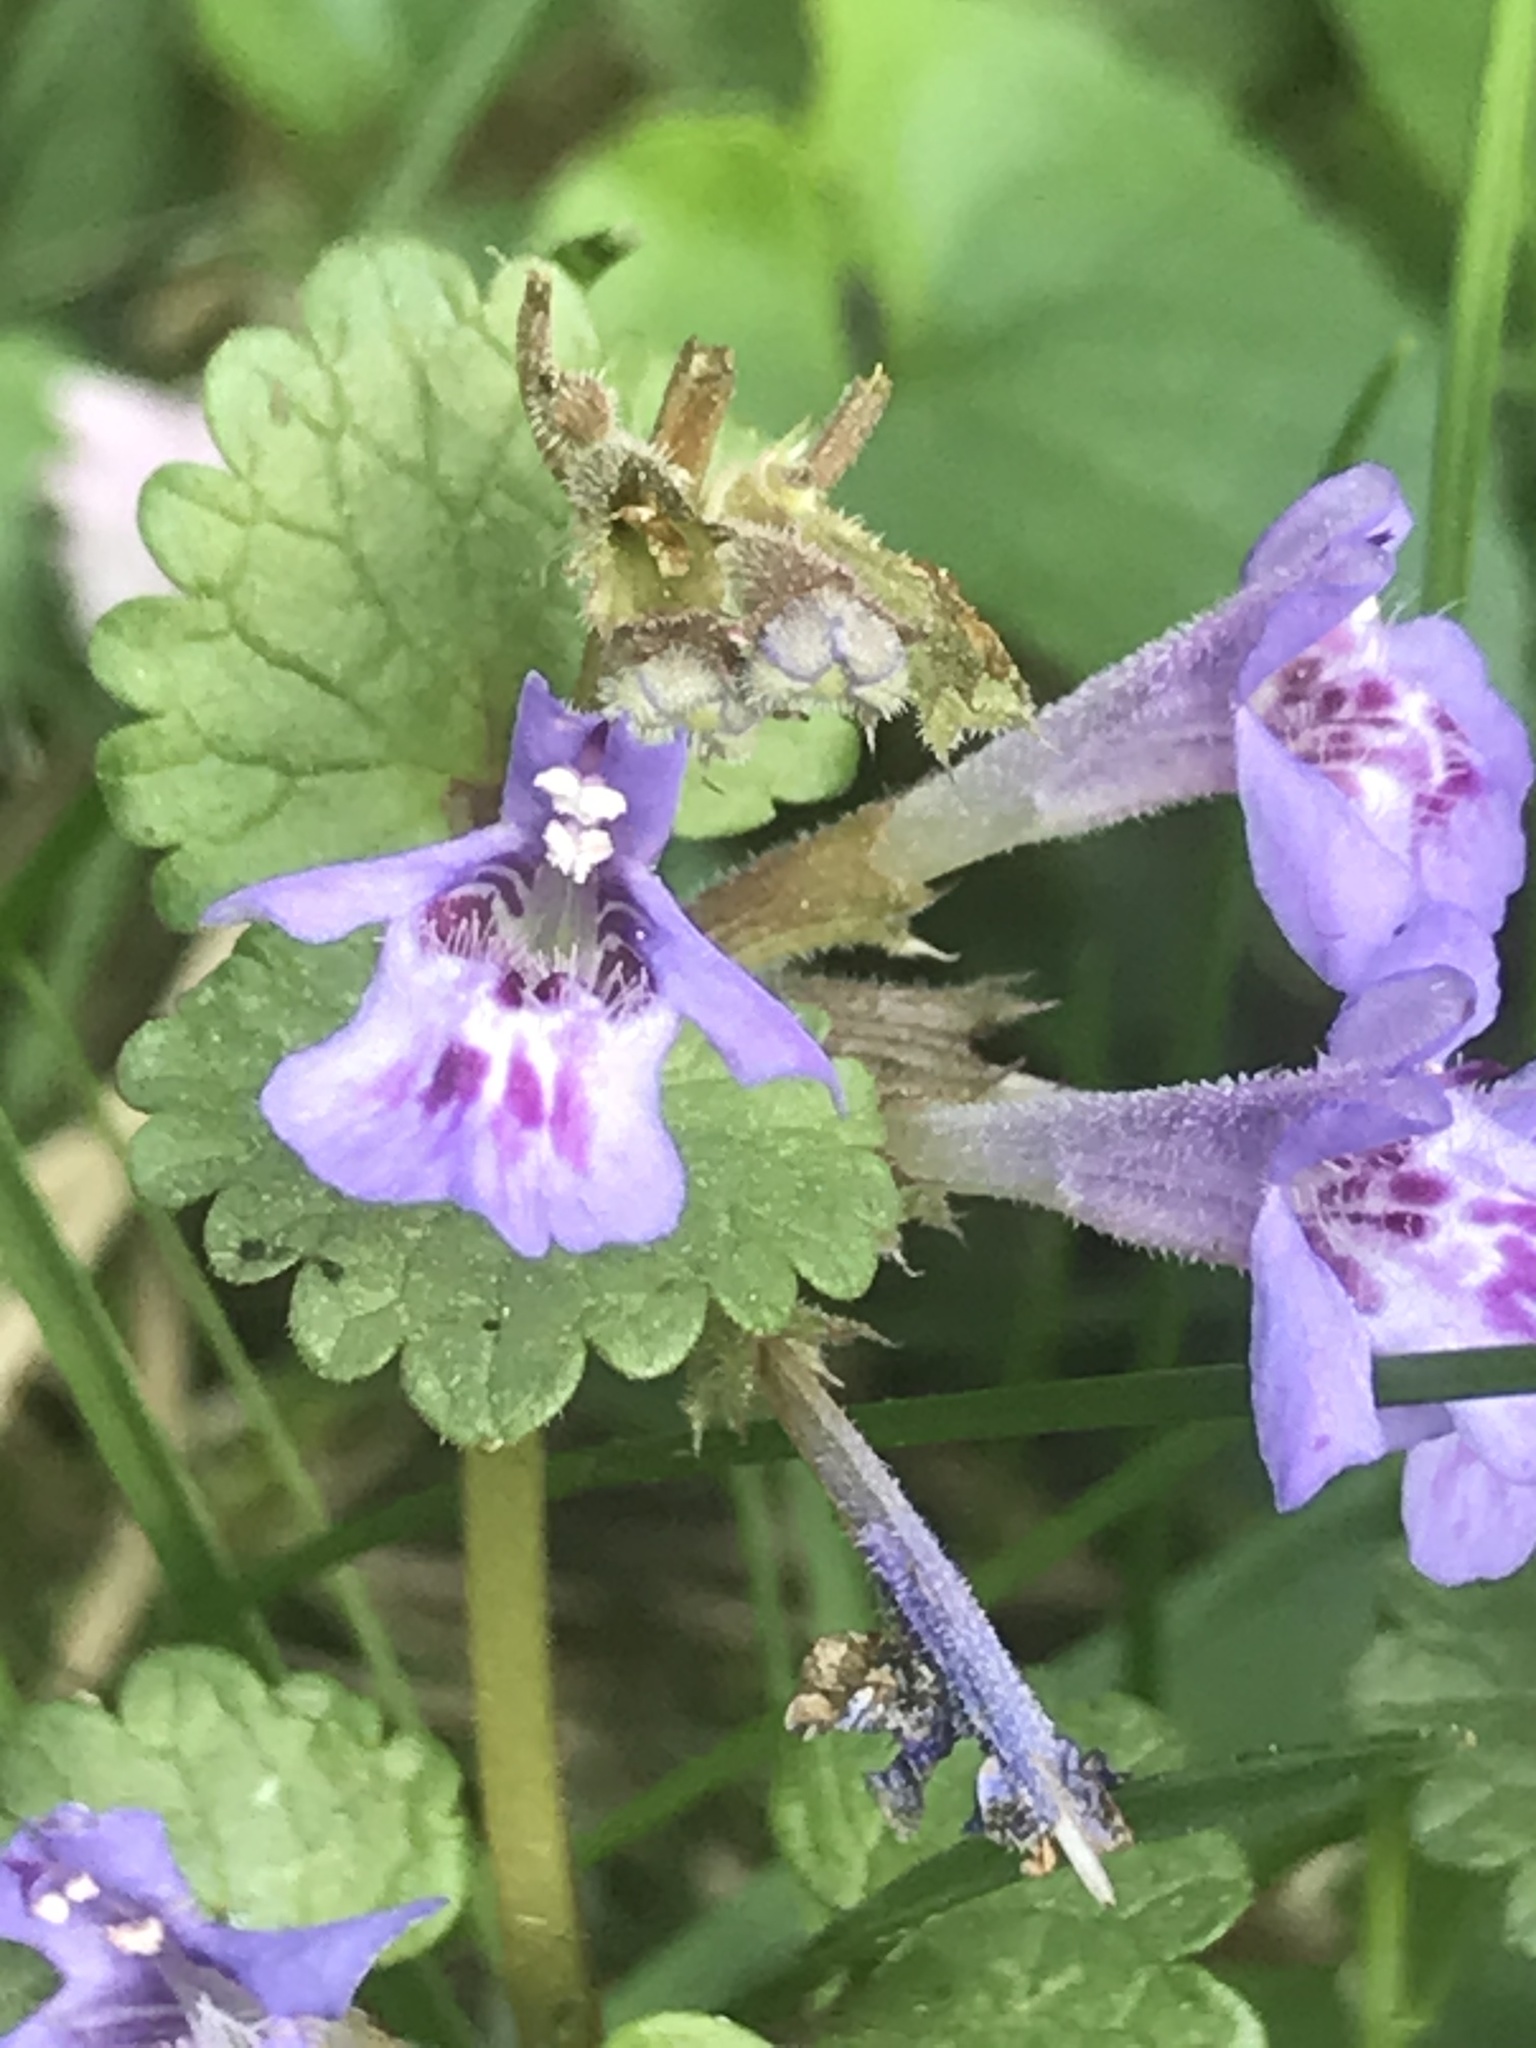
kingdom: Plantae
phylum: Tracheophyta
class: Magnoliopsida
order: Lamiales
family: Lamiaceae
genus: Glechoma
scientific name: Glechoma hederacea
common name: Ground ivy
